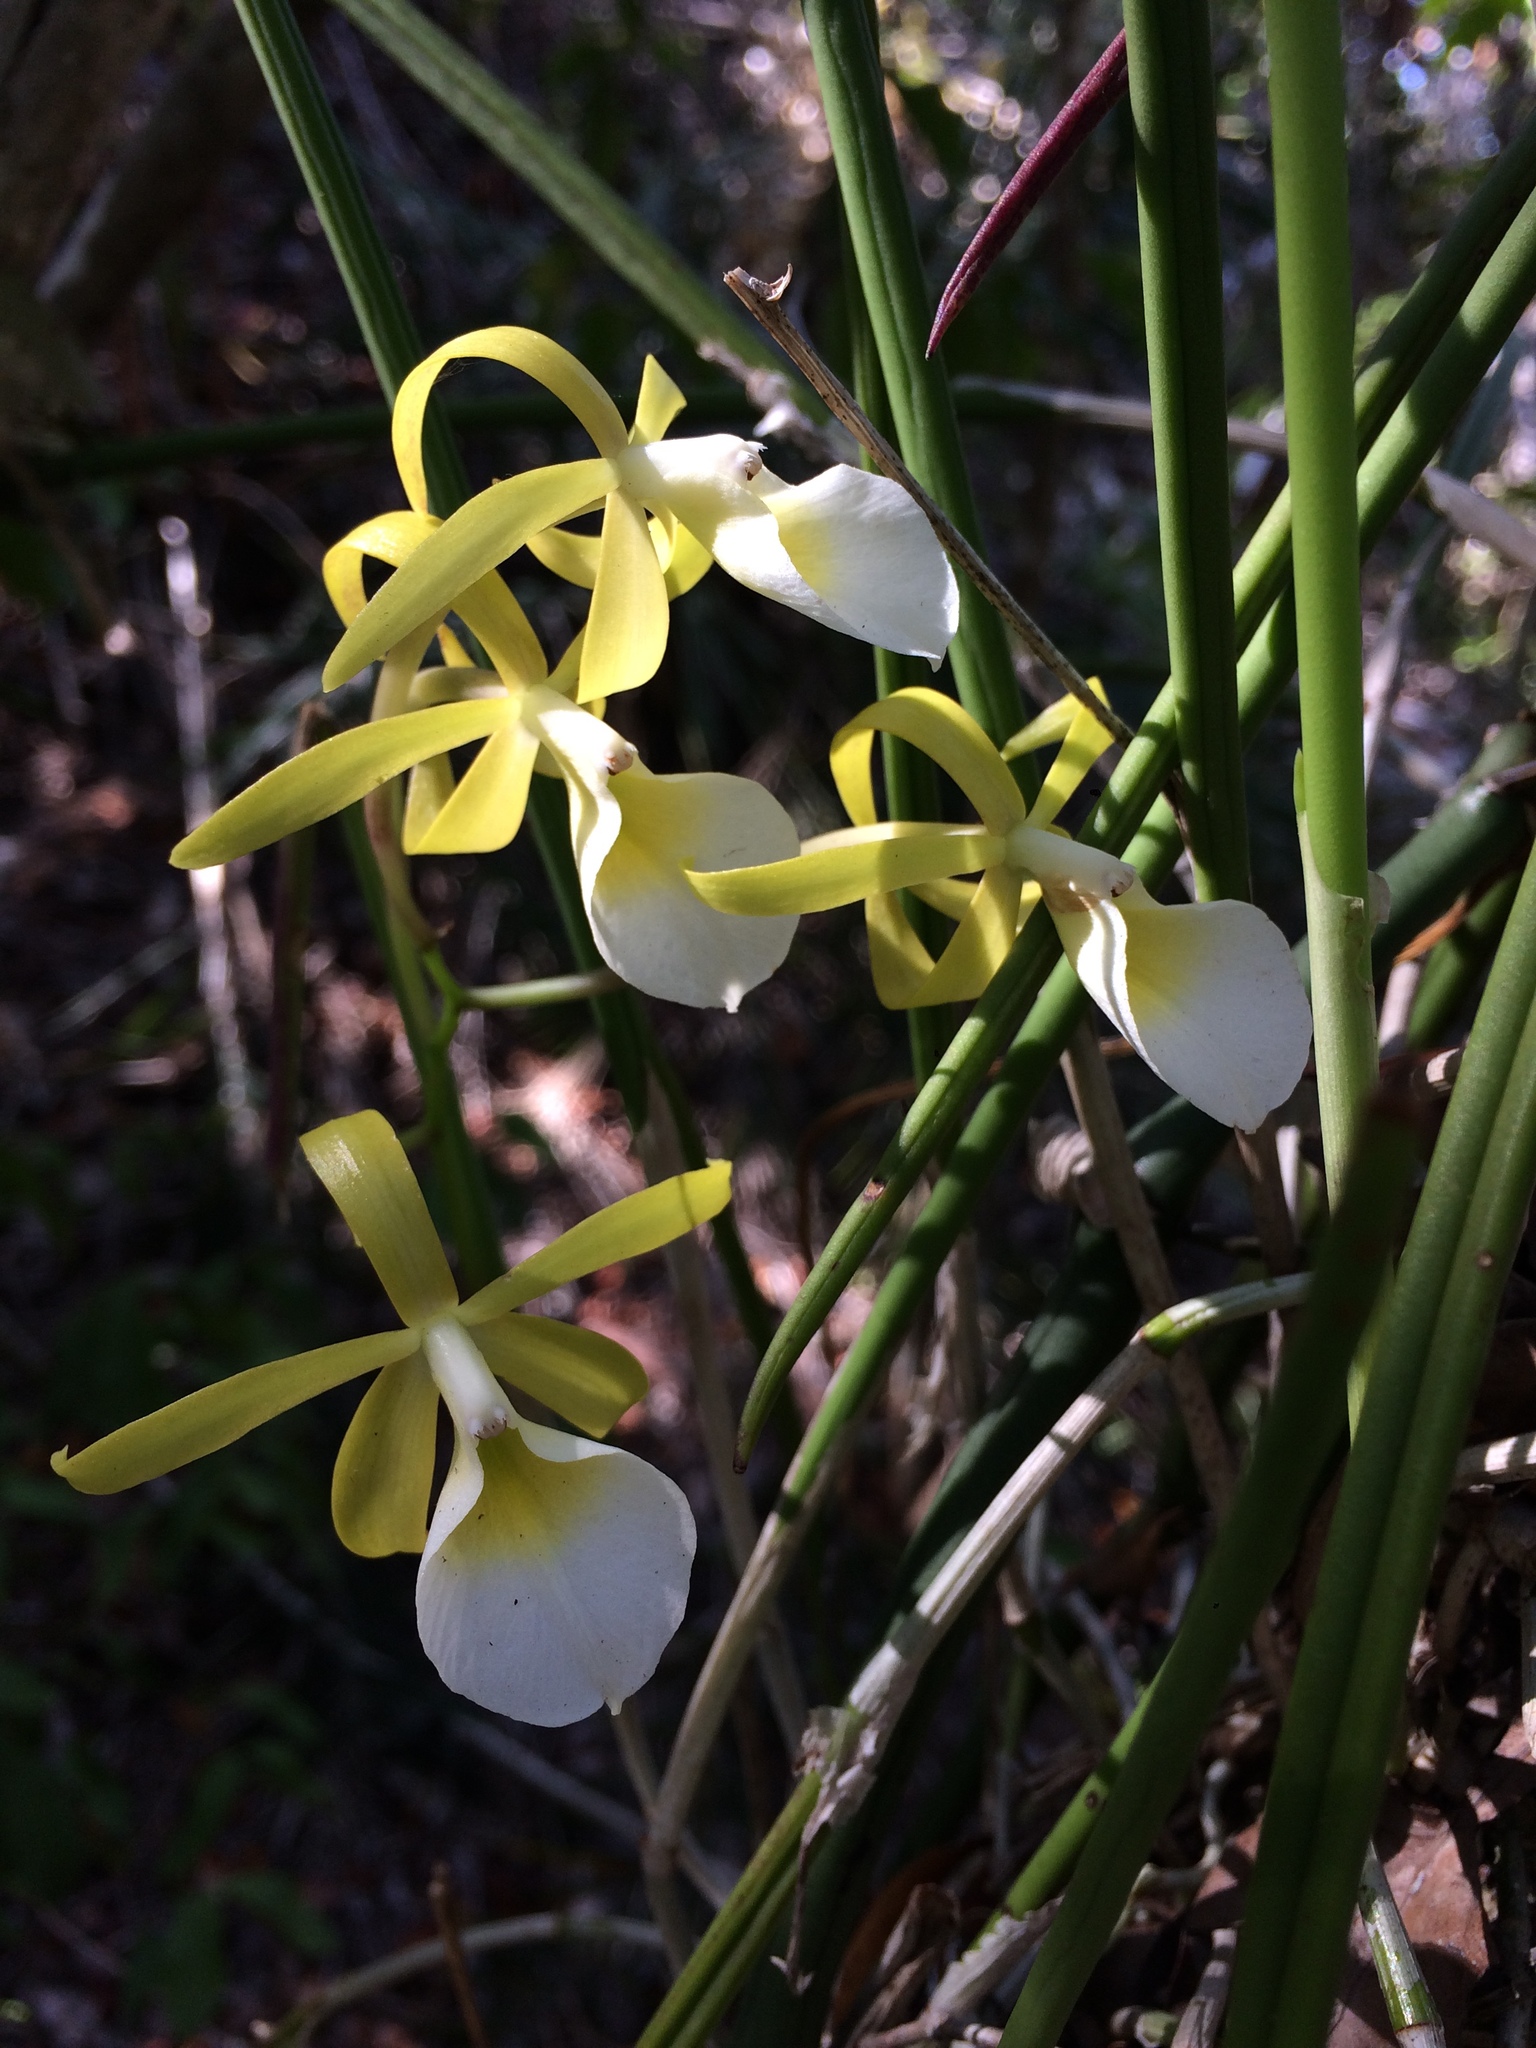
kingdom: Plantae
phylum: Tracheophyta
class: Liliopsida
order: Asparagales
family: Orchidaceae
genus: Brassavola
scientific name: Brassavola ceboletta
